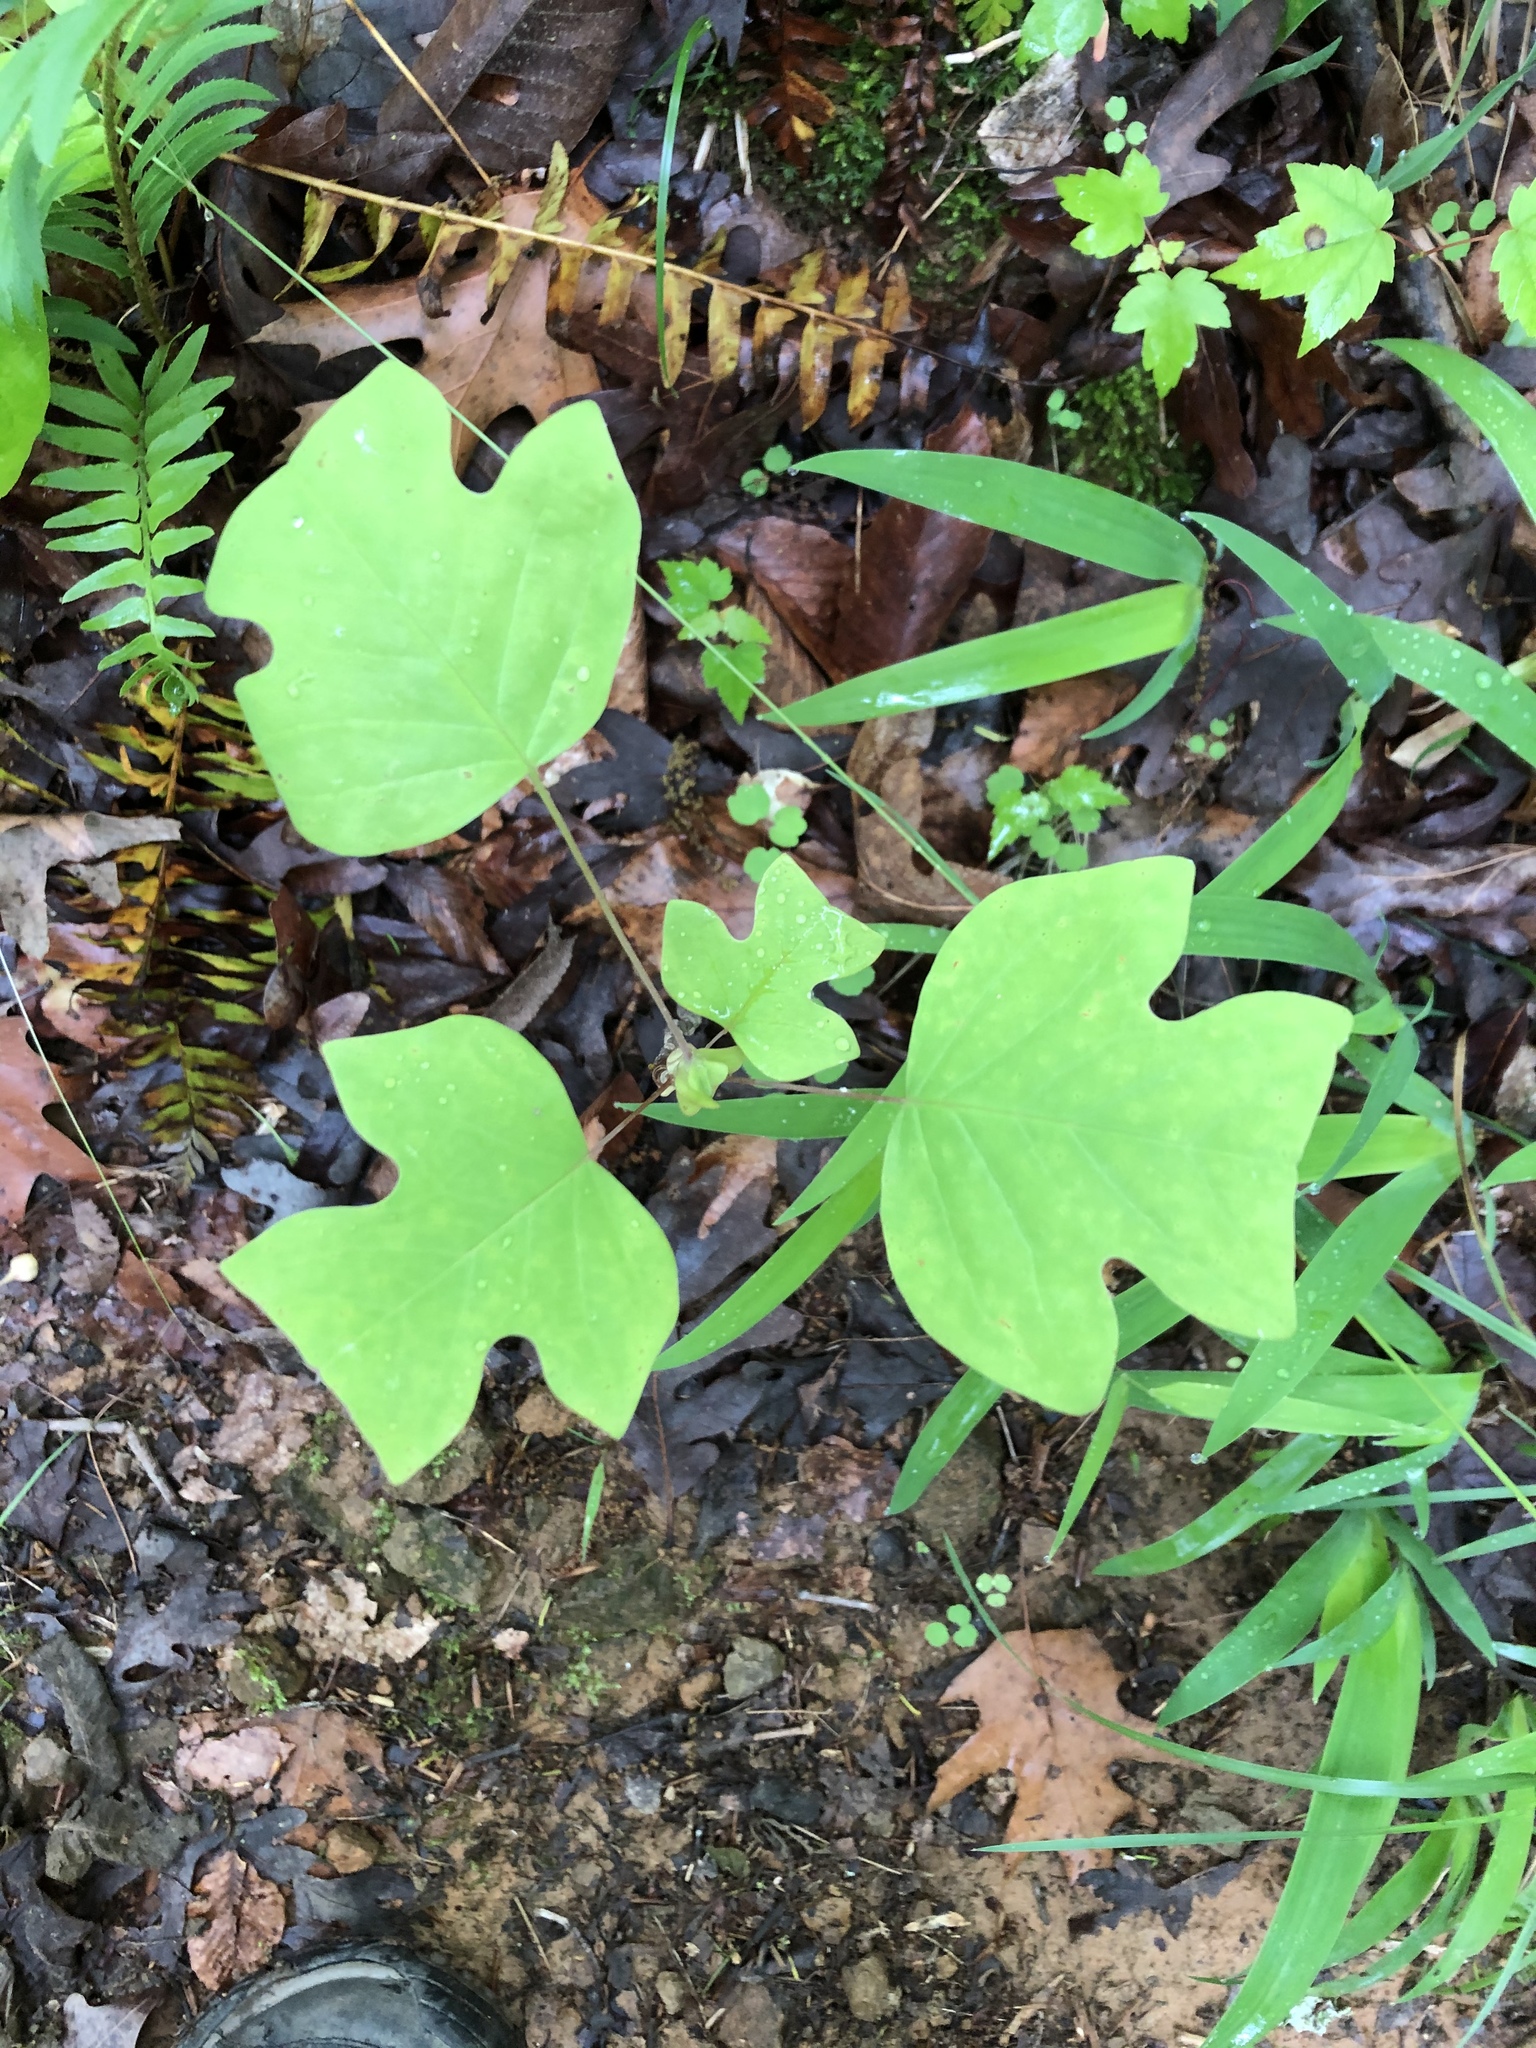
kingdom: Plantae
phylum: Tracheophyta
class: Magnoliopsida
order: Magnoliales
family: Magnoliaceae
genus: Liriodendron
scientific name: Liriodendron tulipifera
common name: Tulip tree
